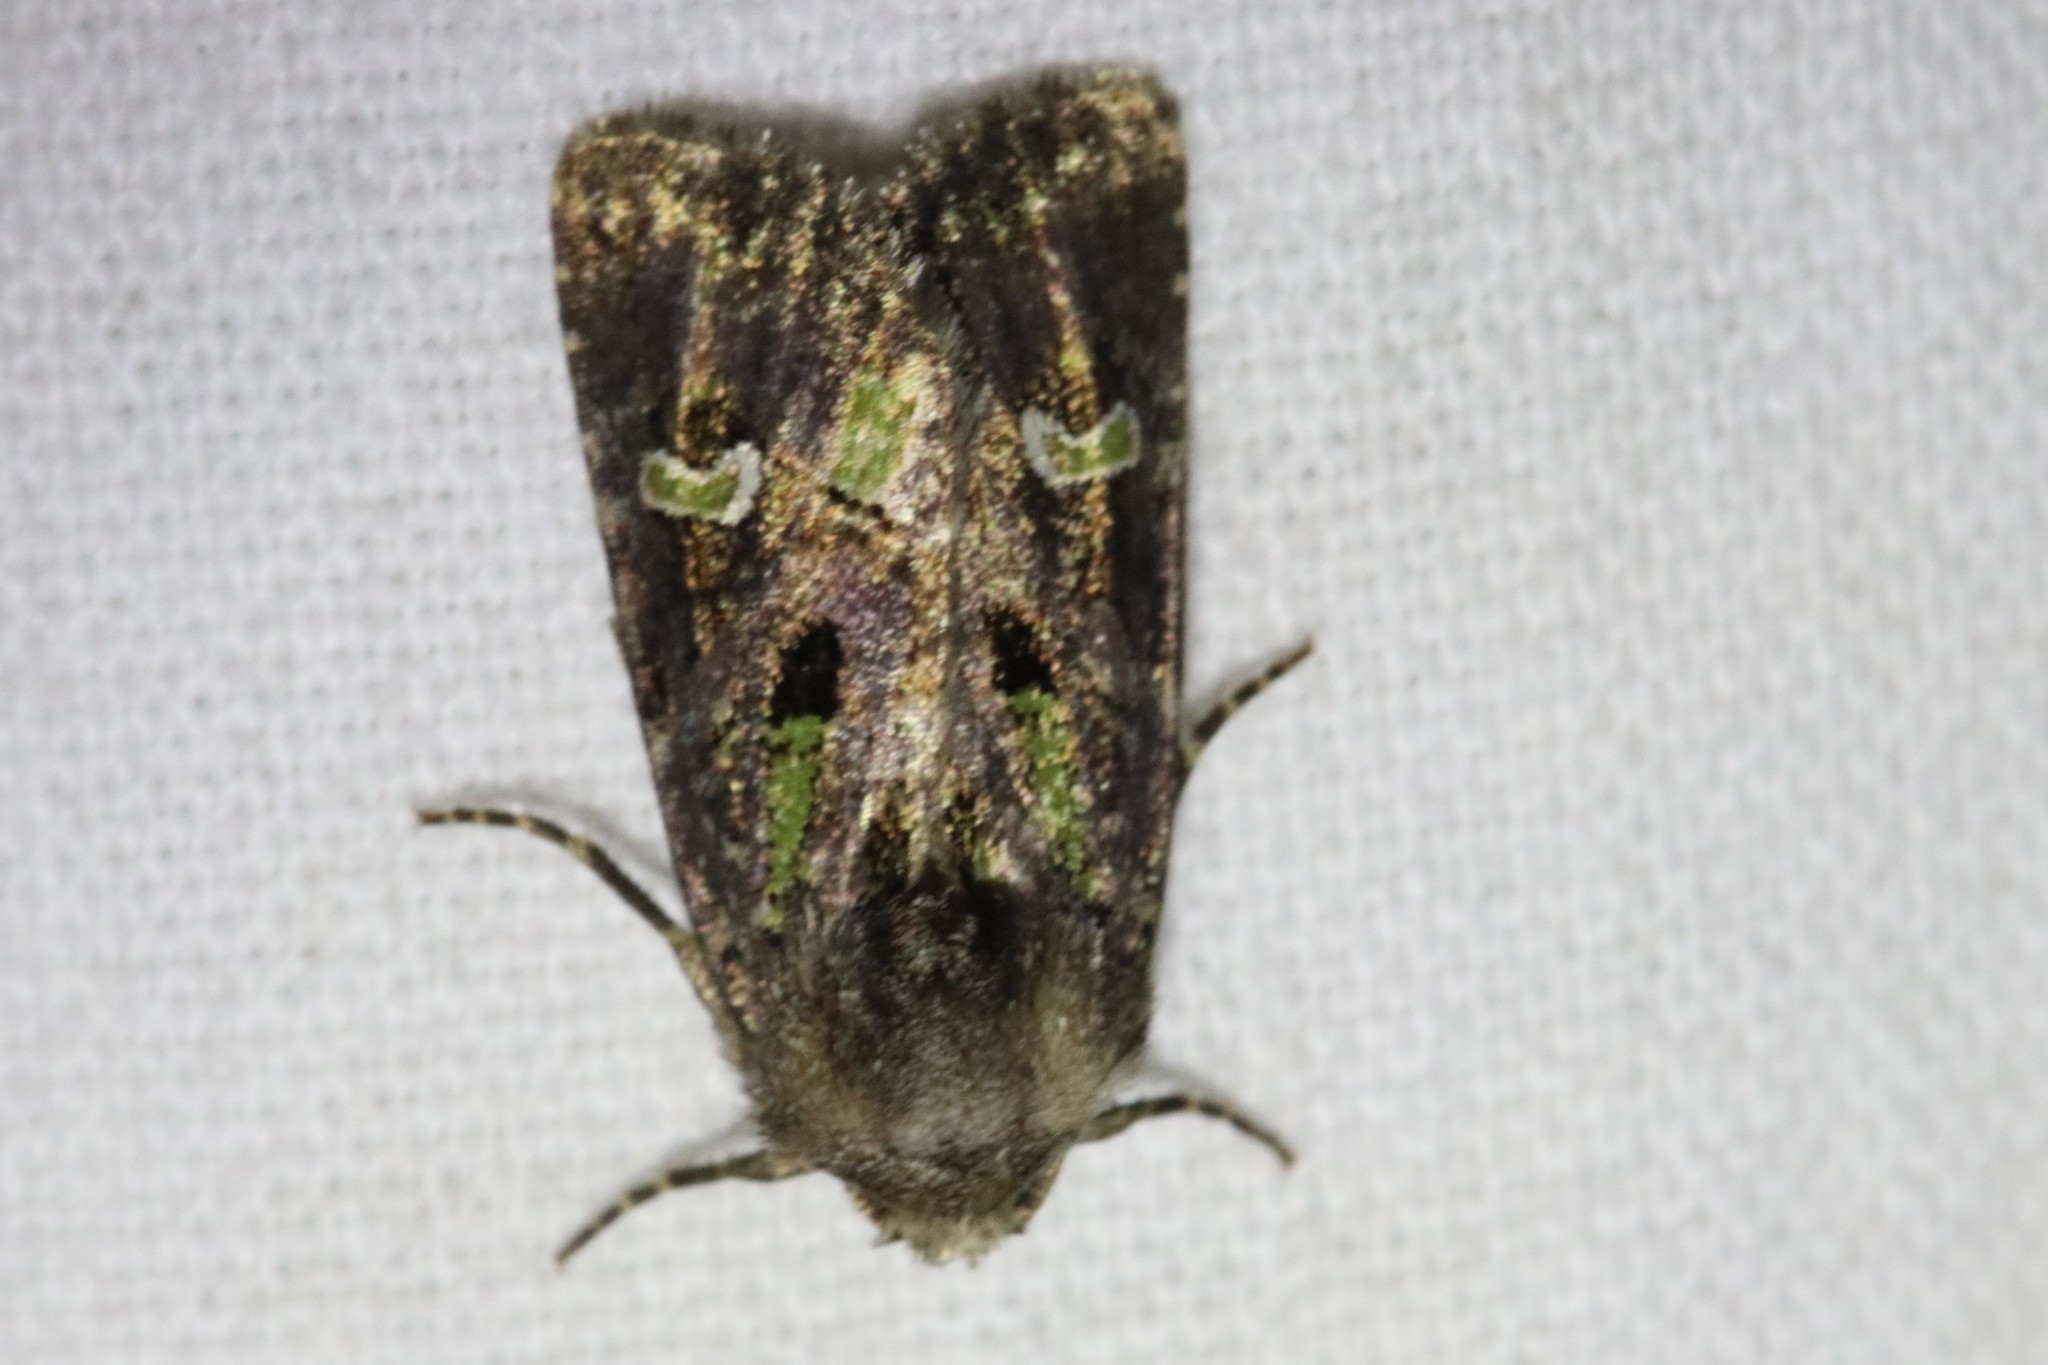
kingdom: Animalia
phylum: Arthropoda
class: Insecta
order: Lepidoptera
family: Noctuidae
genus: Lacinipolia
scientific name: Lacinipolia renigera
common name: Kidney-spotted minor
